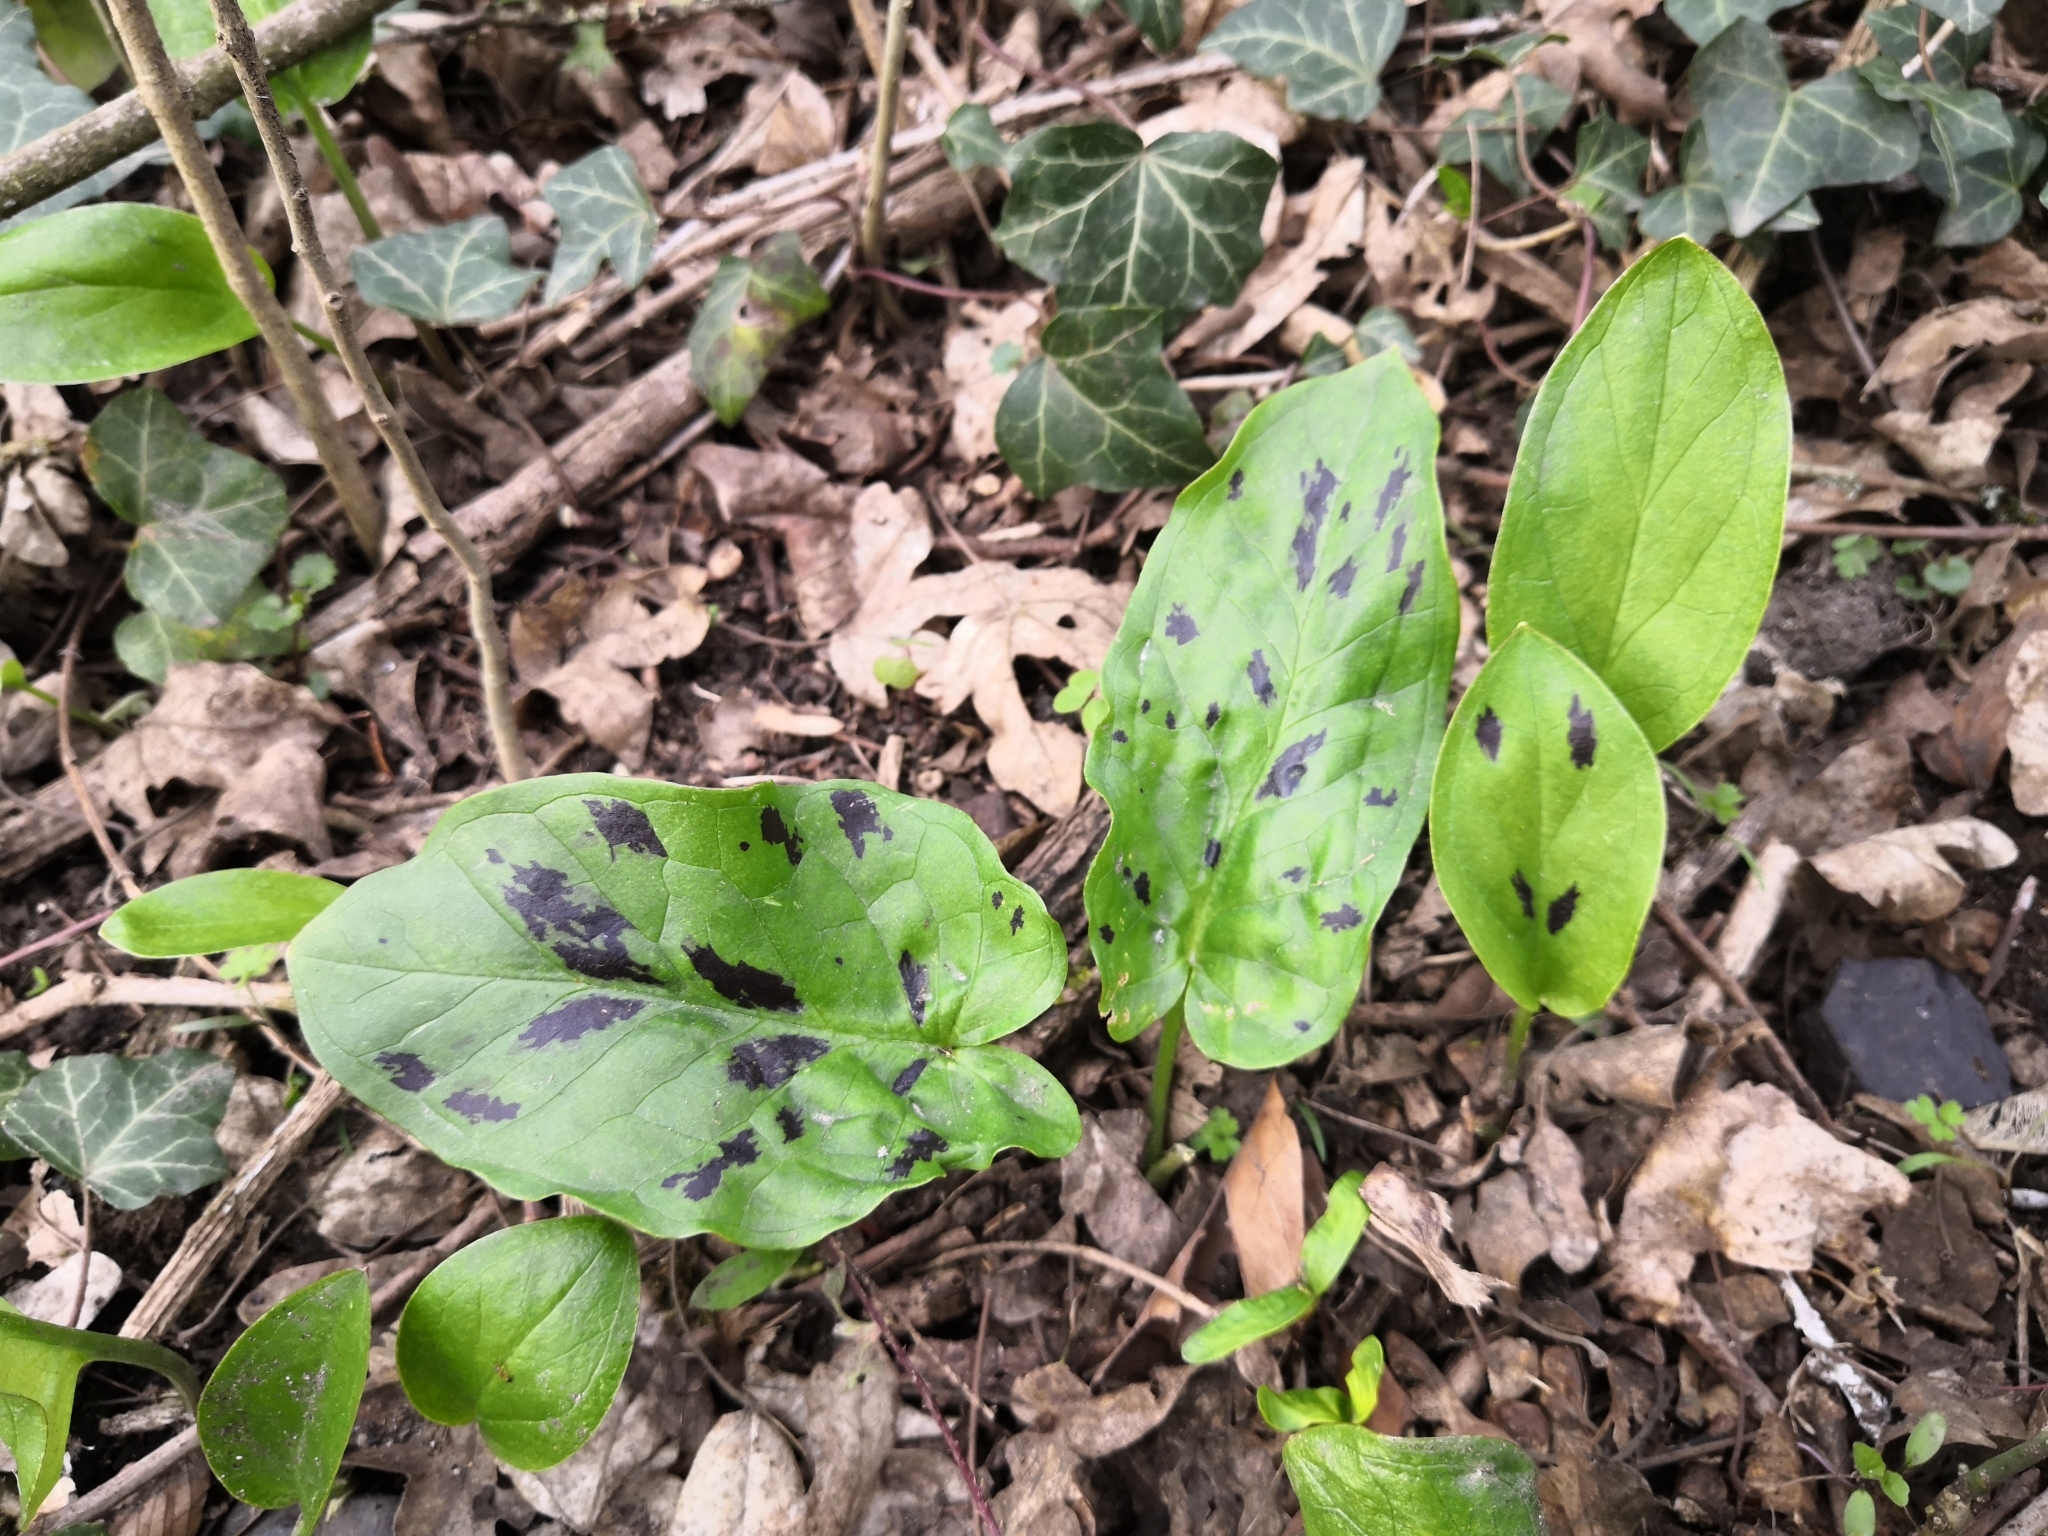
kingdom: Plantae
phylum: Tracheophyta
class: Liliopsida
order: Alismatales
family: Araceae
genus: Arum
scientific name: Arum maculatum
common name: Lords-and-ladies
